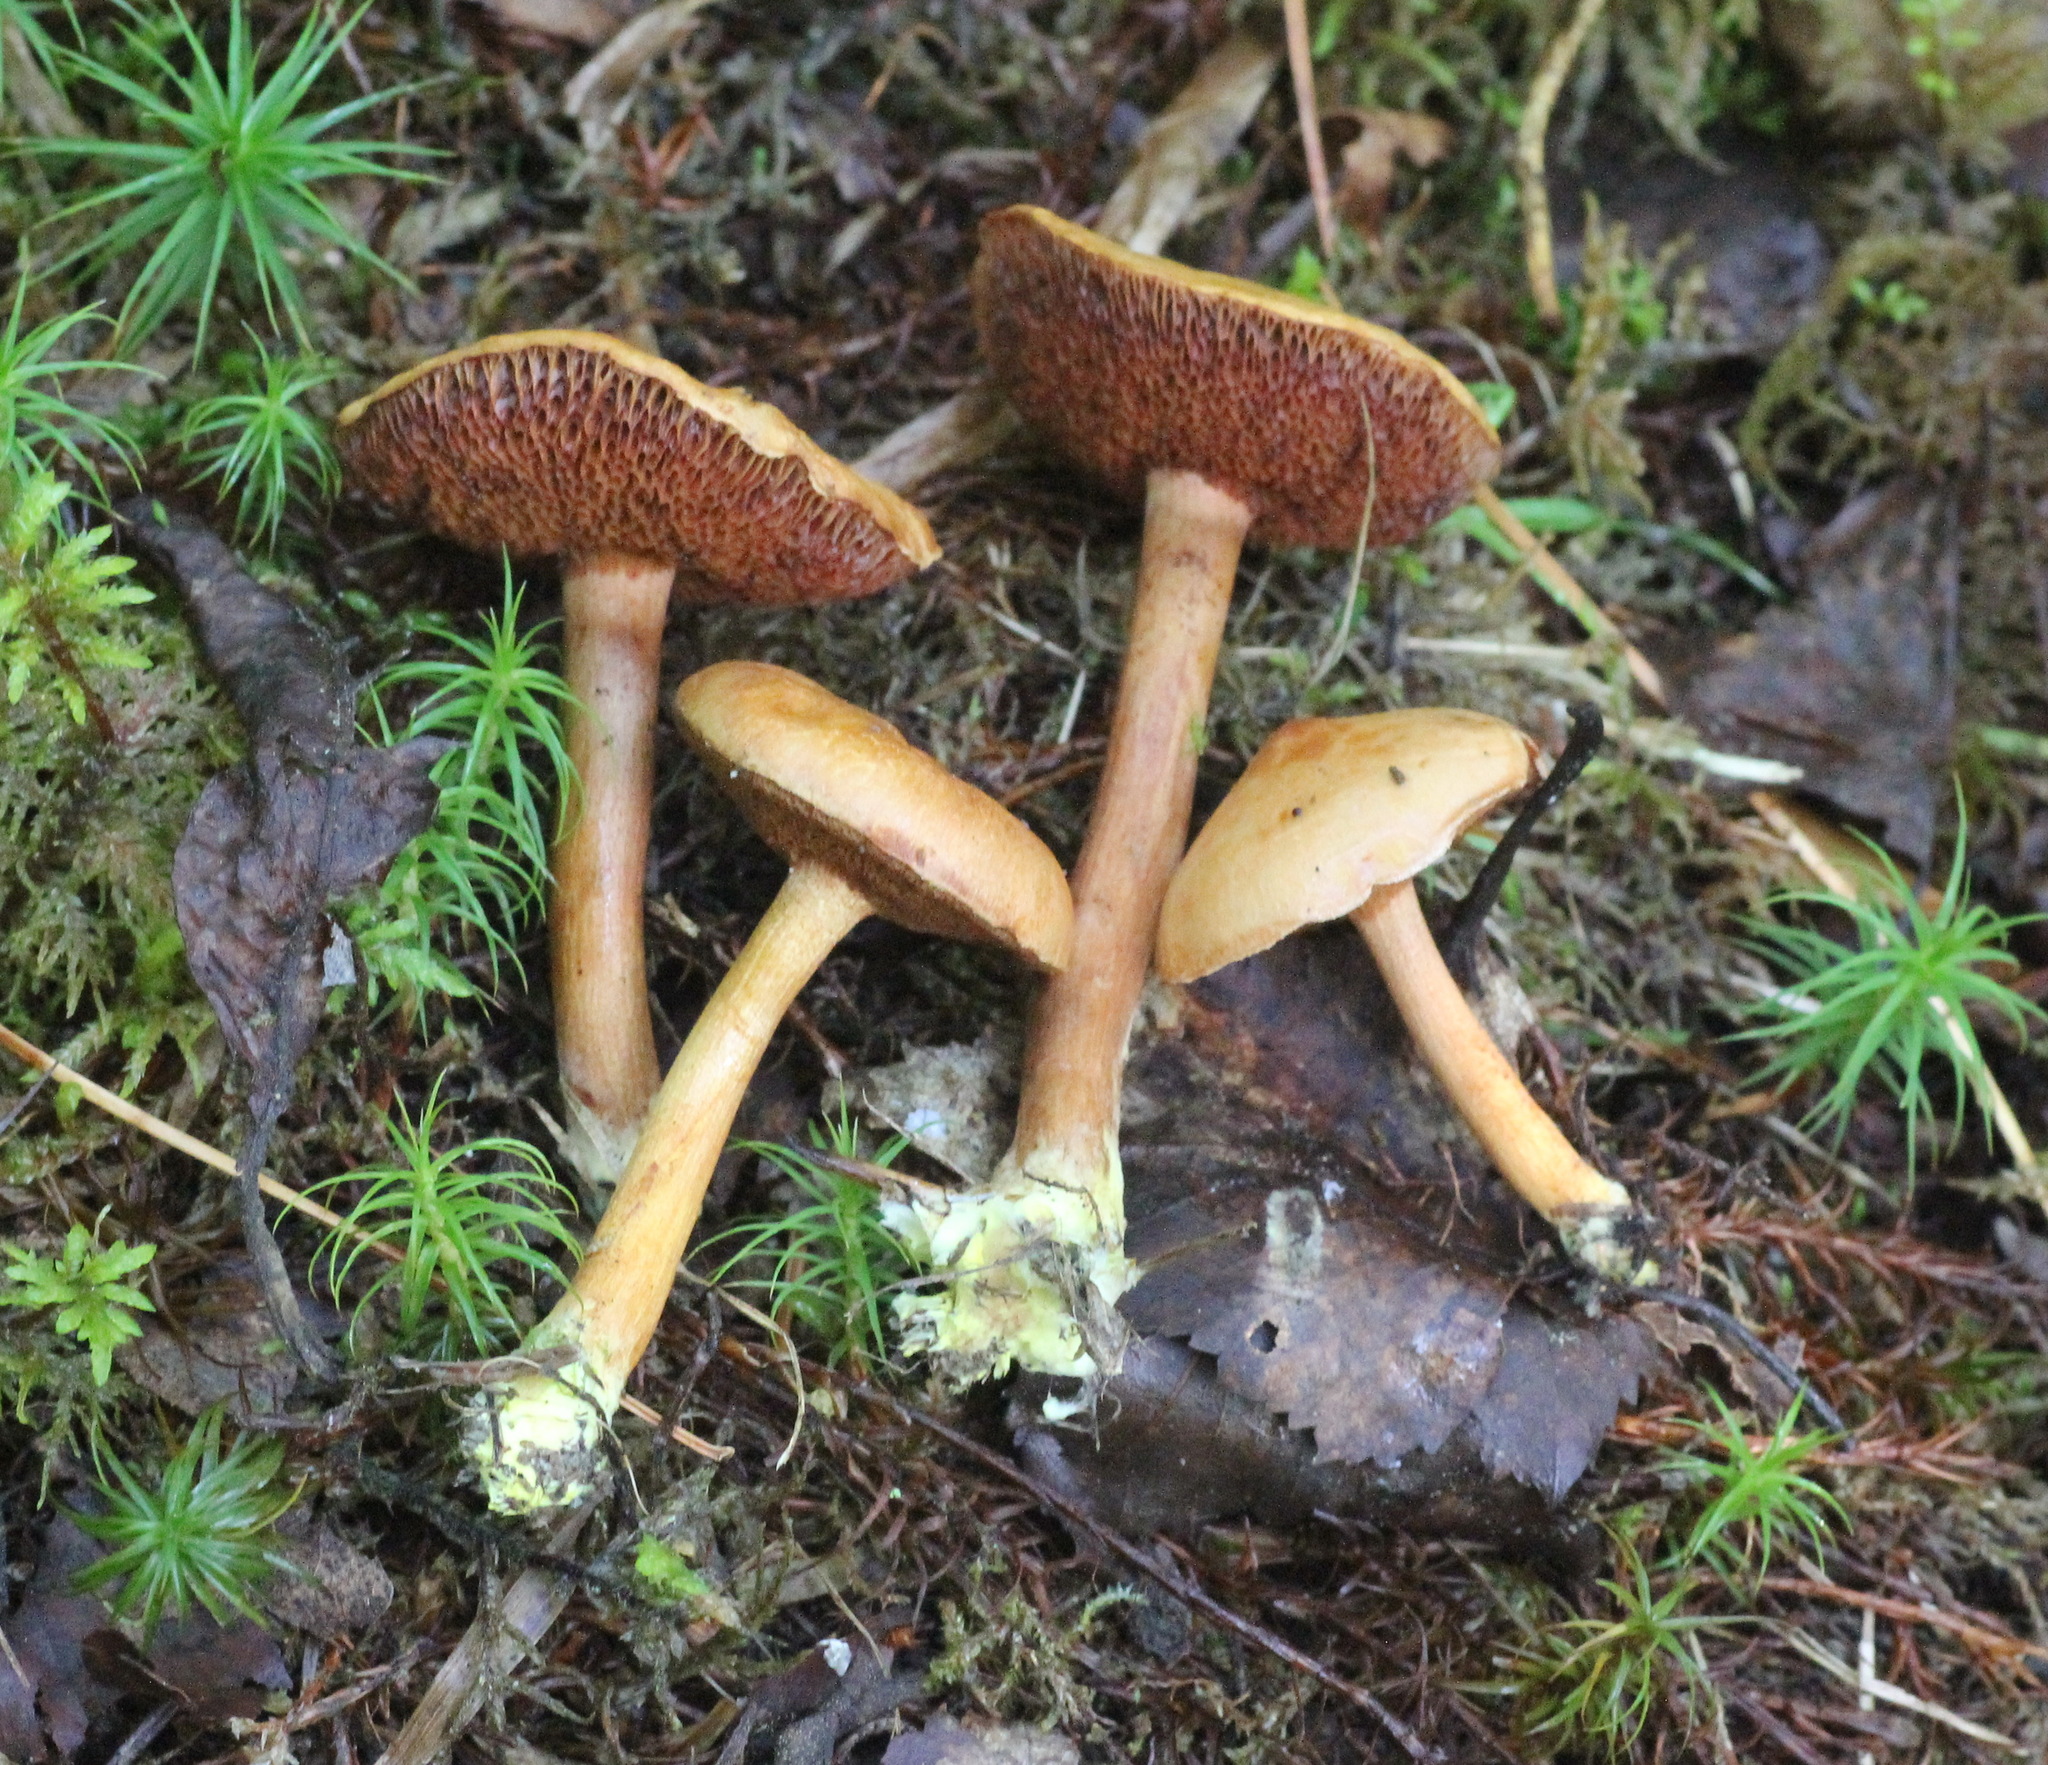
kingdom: Fungi
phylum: Basidiomycota
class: Agaricomycetes
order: Boletales
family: Boletaceae
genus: Chalciporus
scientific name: Chalciporus piperatus
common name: Peppery bolete
